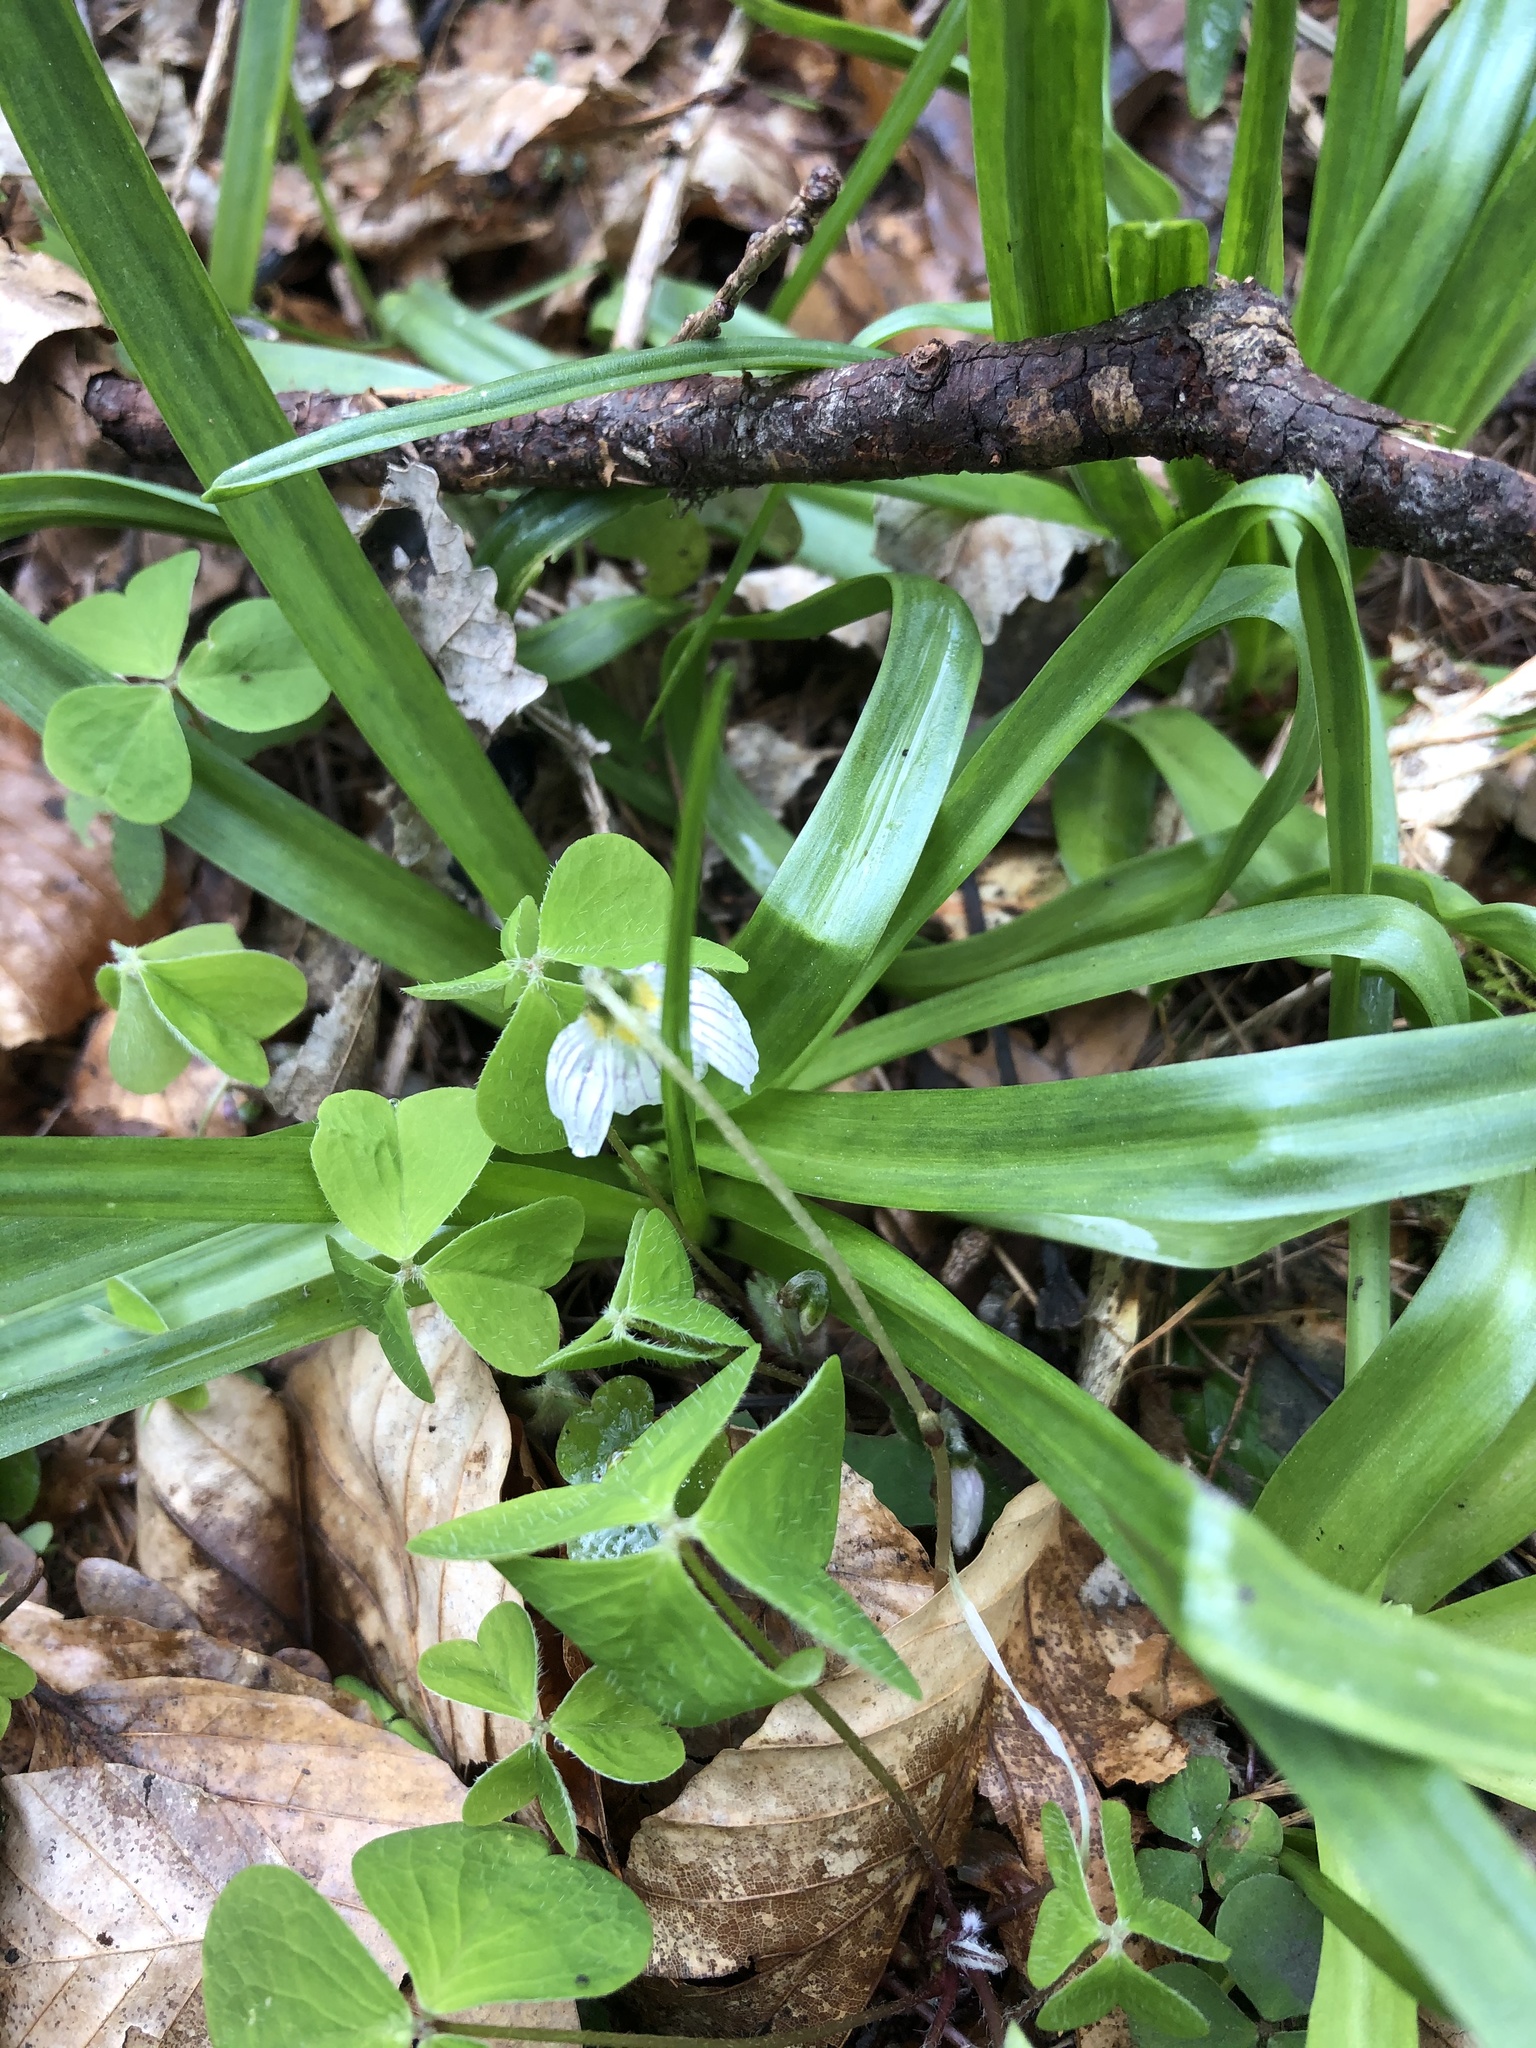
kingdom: Plantae
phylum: Tracheophyta
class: Magnoliopsida
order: Oxalidales
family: Oxalidaceae
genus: Oxalis
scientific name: Oxalis acetosella
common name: Wood-sorrel
